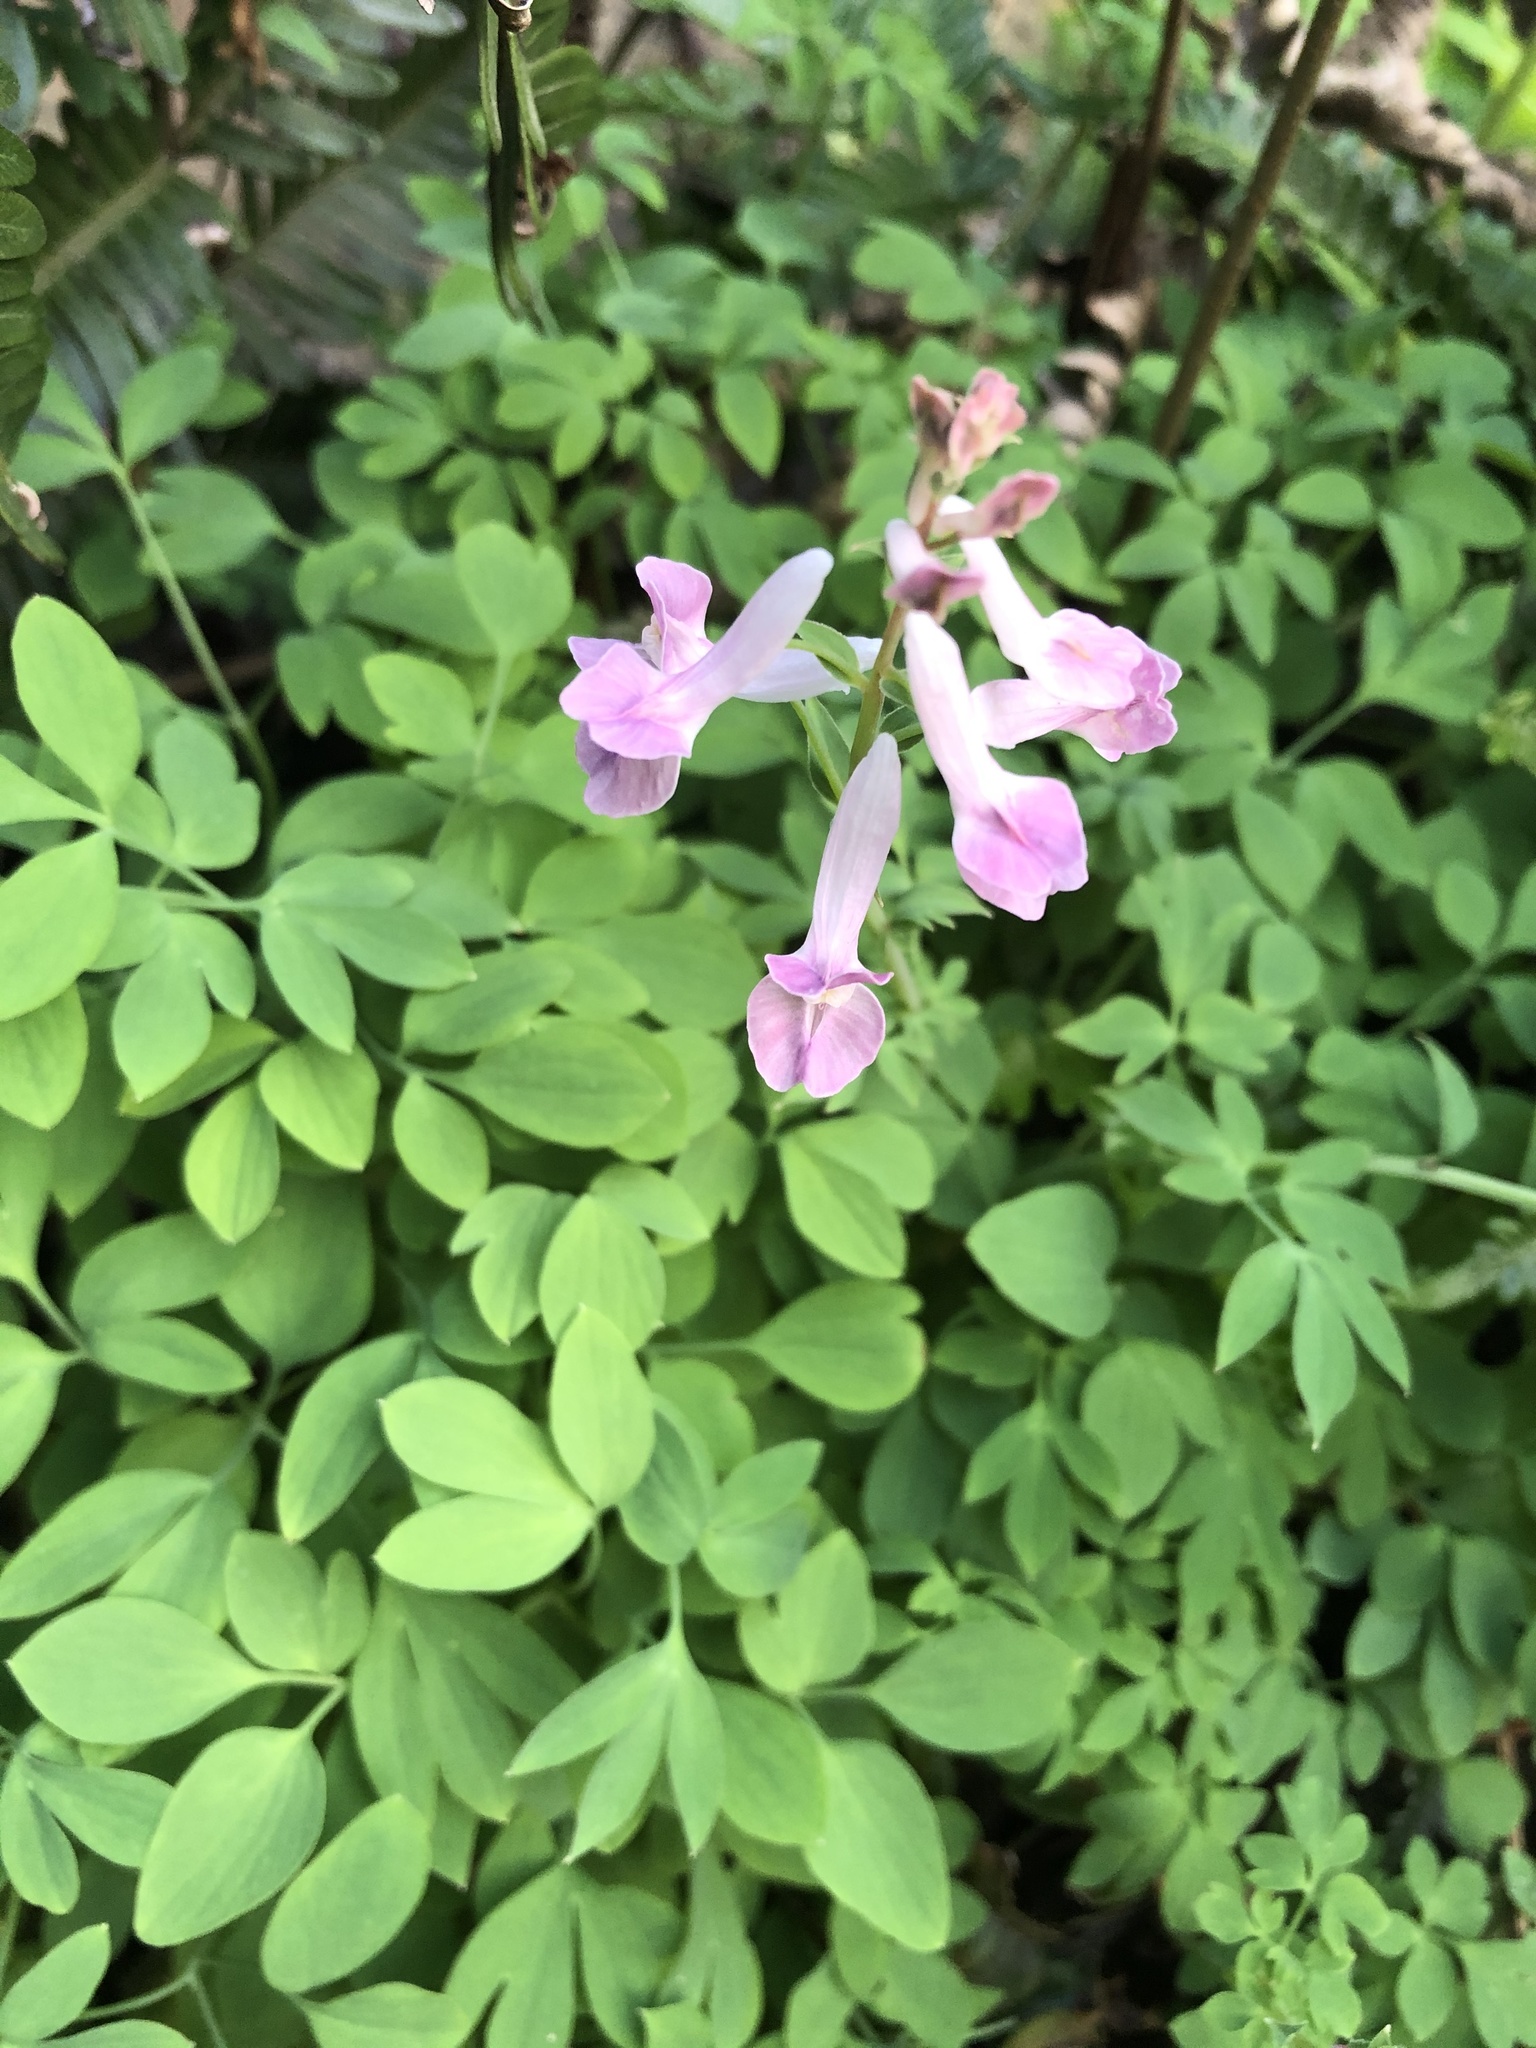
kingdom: Plantae
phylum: Tracheophyta
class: Magnoliopsida
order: Ranunculales
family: Papaveraceae
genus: Corydalis
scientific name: Corydalis decumbens
